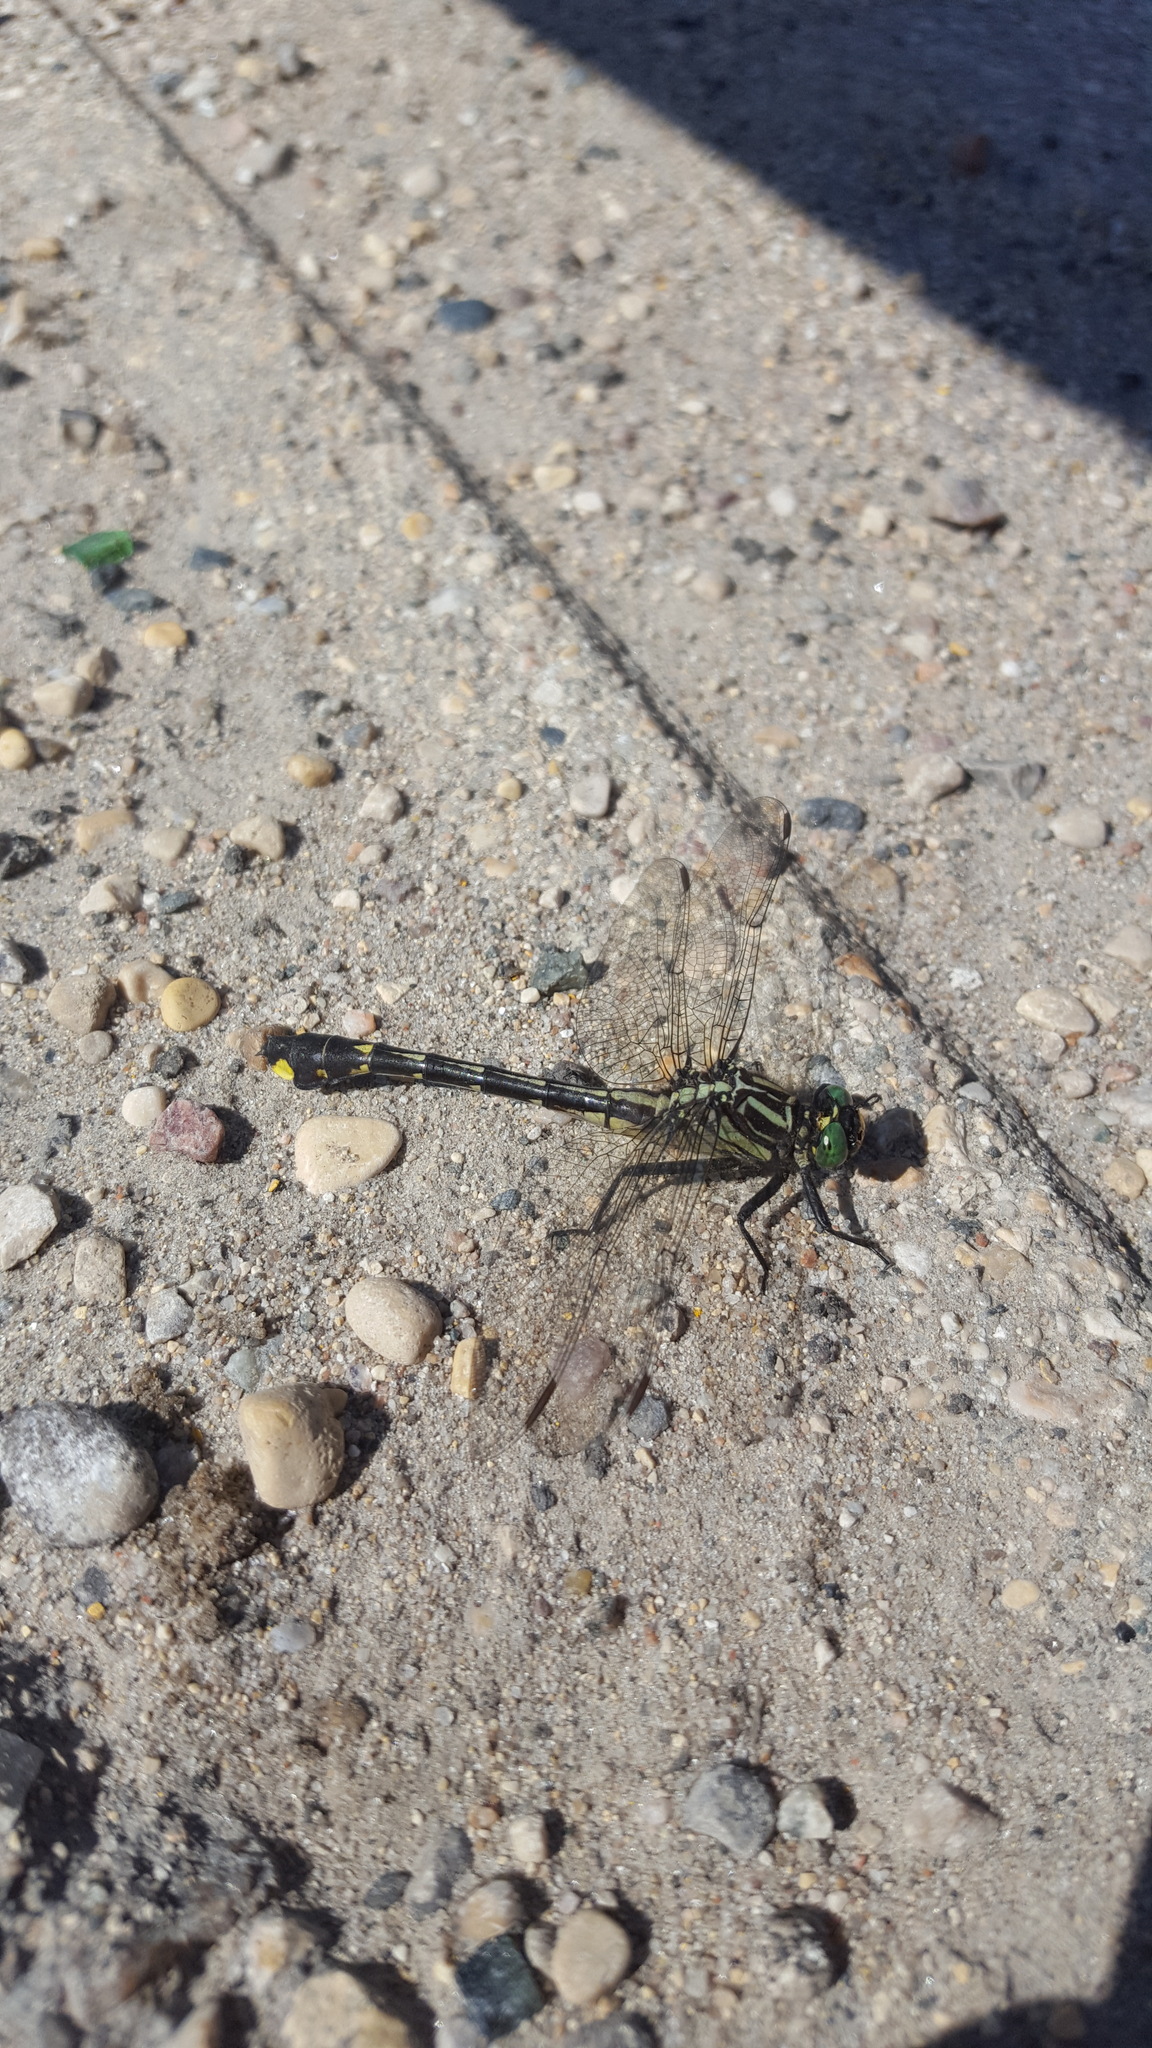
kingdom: Animalia
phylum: Arthropoda
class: Insecta
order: Odonata
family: Gomphidae
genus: Gomphurus
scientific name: Gomphurus vastus
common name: Cobra clubtail
